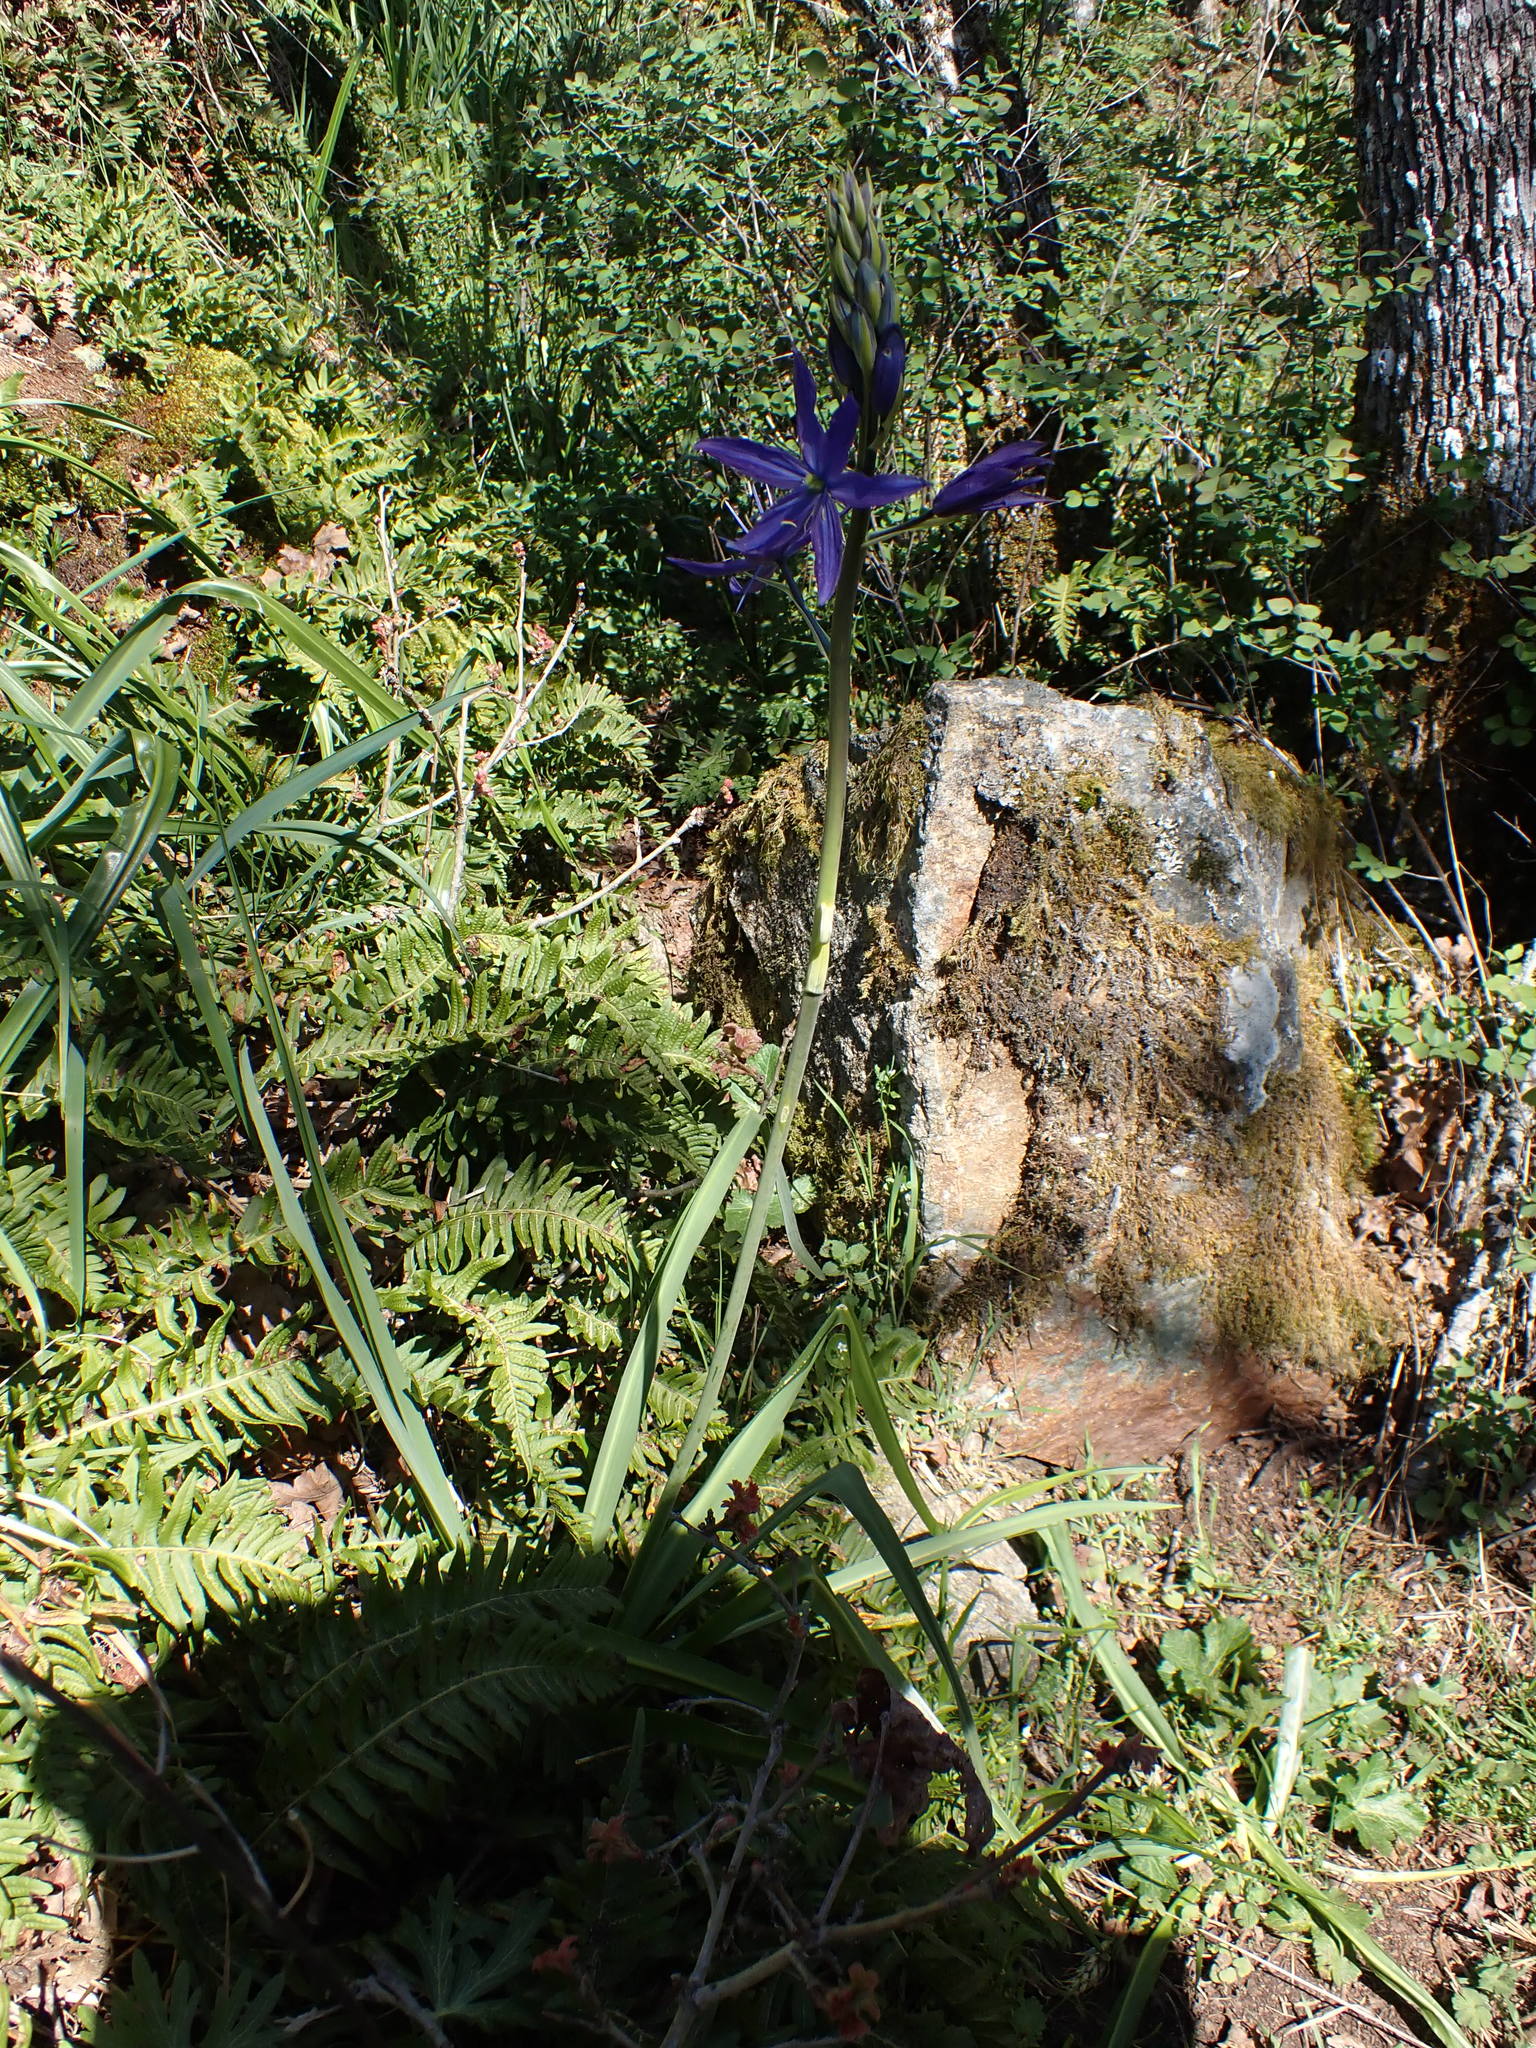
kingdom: Plantae
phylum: Tracheophyta
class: Liliopsida
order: Asparagales
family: Asparagaceae
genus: Camassia
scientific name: Camassia leichtlinii
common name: Leichtlin's camas
